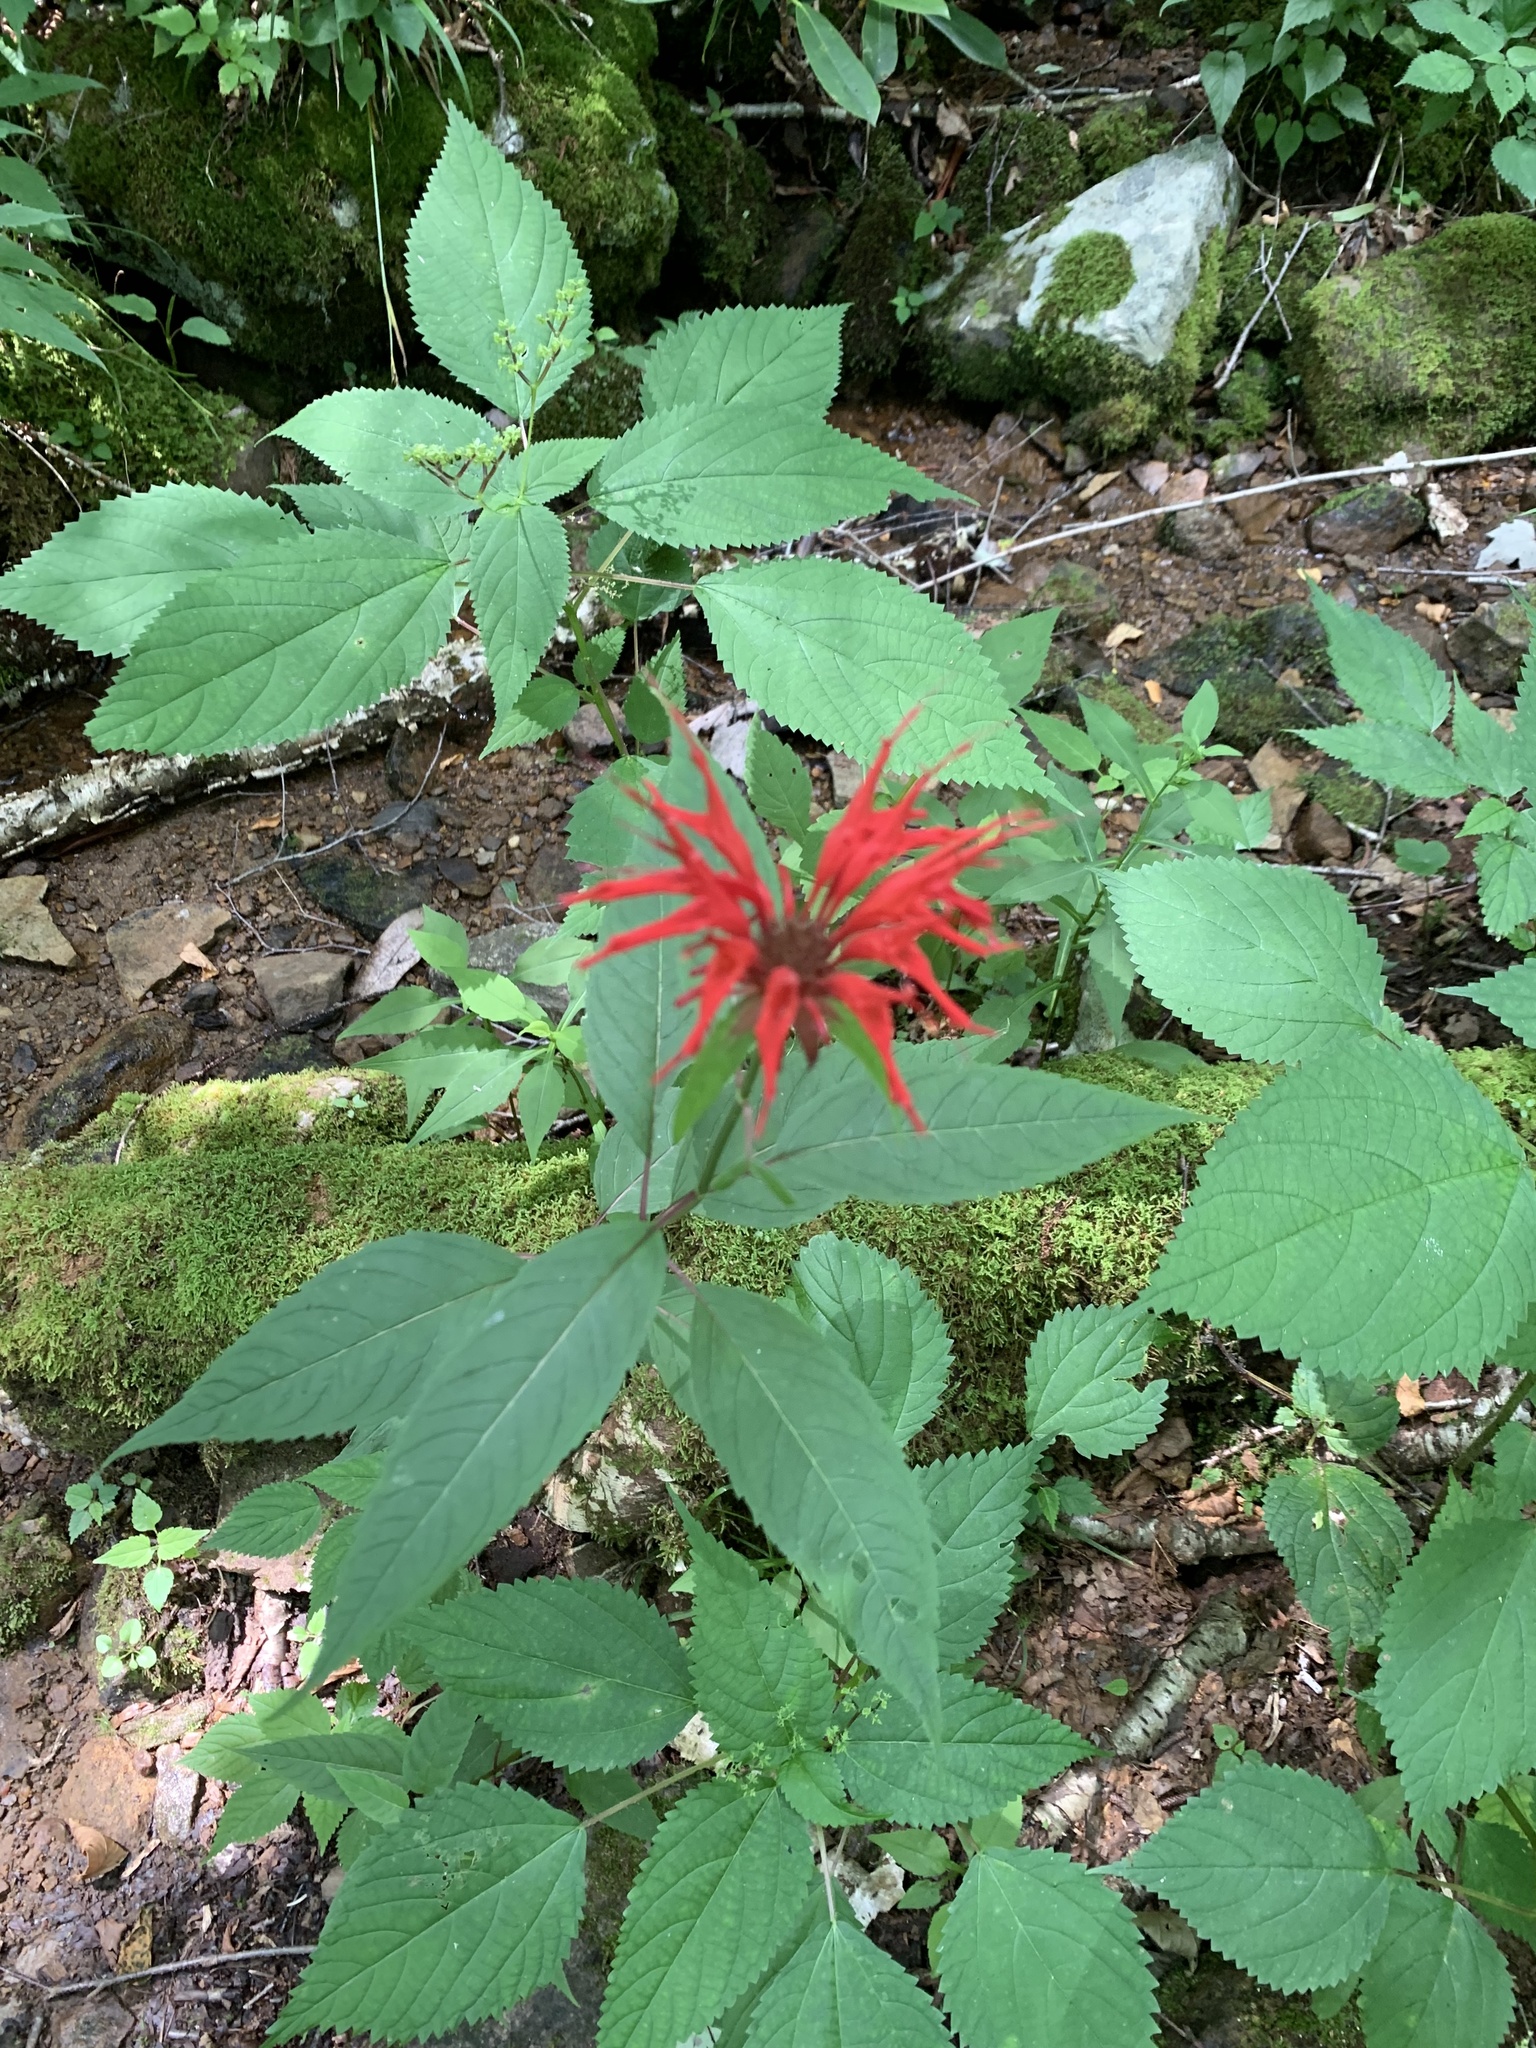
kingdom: Plantae
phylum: Tracheophyta
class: Magnoliopsida
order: Lamiales
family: Lamiaceae
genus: Monarda
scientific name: Monarda didyma
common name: Beebalm
